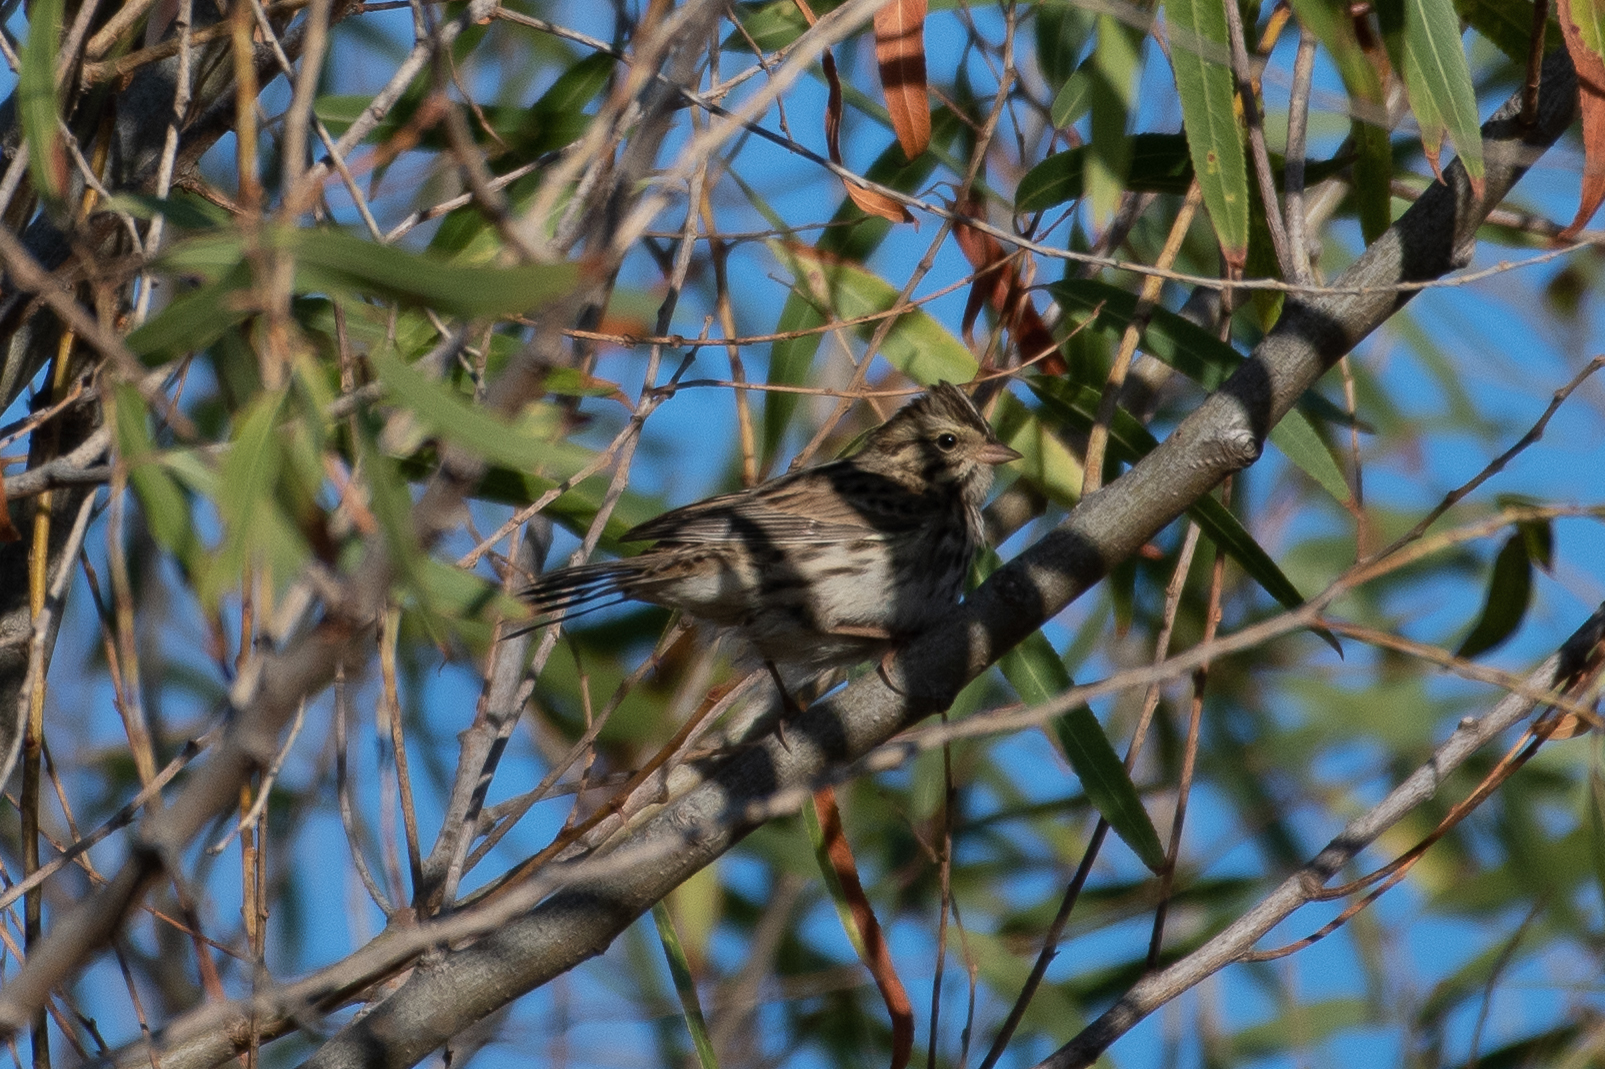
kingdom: Animalia
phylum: Chordata
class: Aves
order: Passeriformes
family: Passerellidae
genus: Passerculus
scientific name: Passerculus sandwichensis
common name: Savannah sparrow
